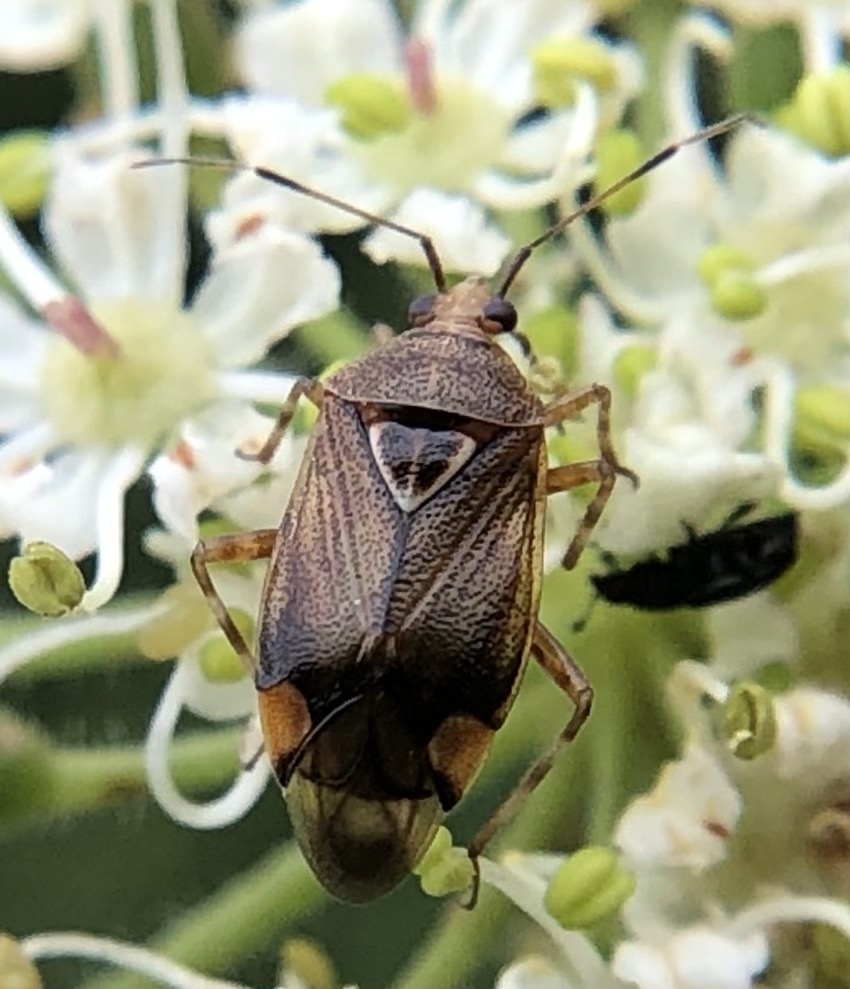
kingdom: Animalia
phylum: Arthropoda
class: Insecta
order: Hemiptera
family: Miridae
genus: Deraeocoris
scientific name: Deraeocoris flavilinea
